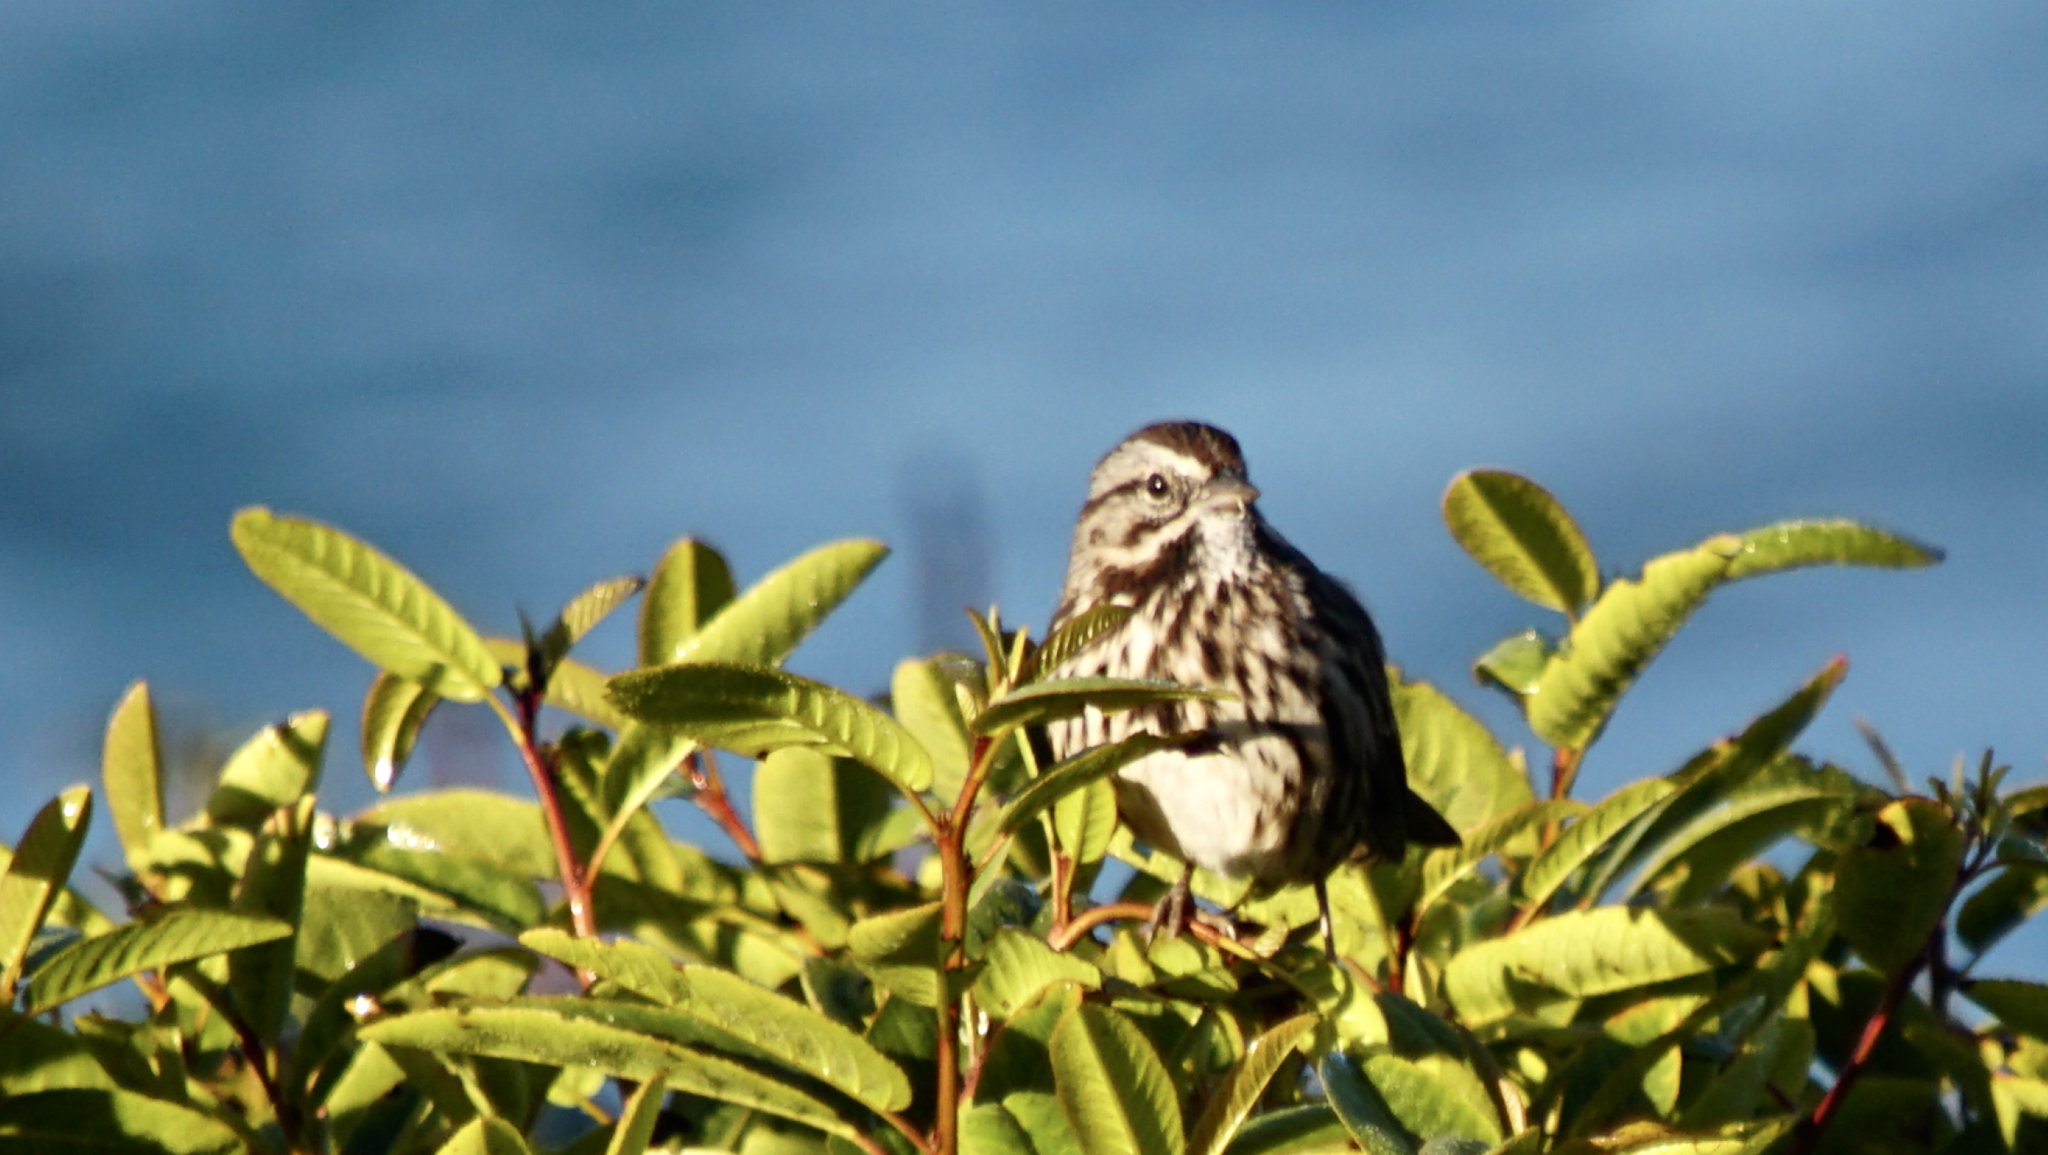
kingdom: Animalia
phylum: Chordata
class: Aves
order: Passeriformes
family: Passerellidae
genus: Melospiza
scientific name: Melospiza melodia
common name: Song sparrow
